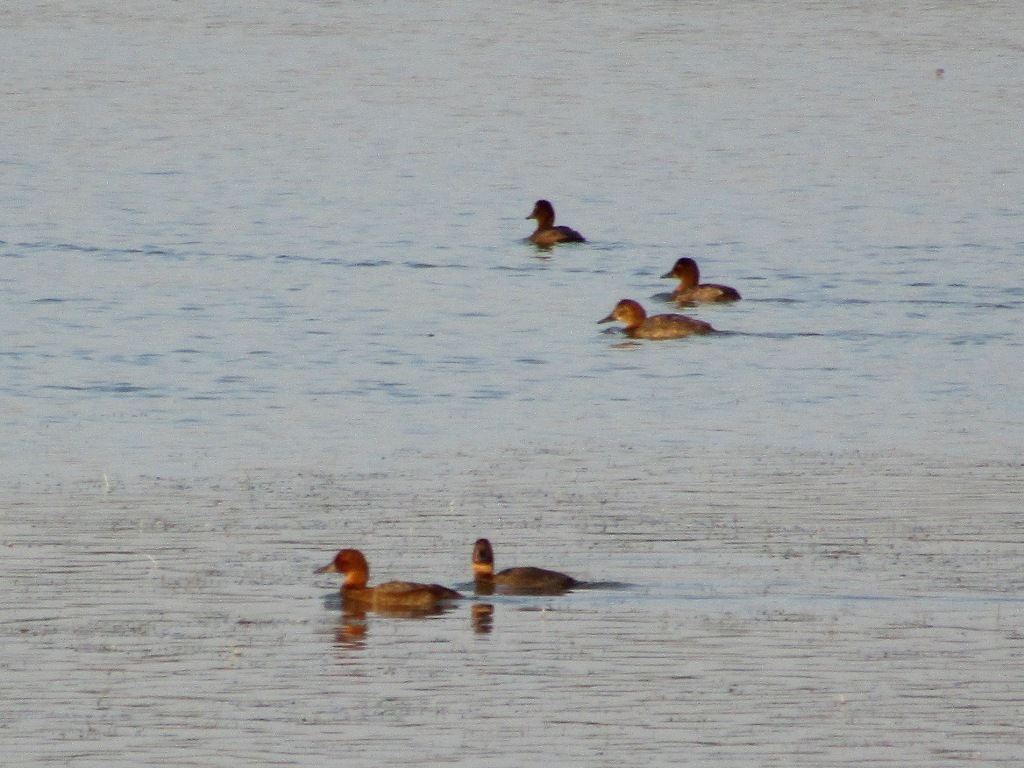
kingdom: Animalia
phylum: Chordata
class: Aves
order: Anseriformes
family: Anatidae
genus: Aythya
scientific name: Aythya ferina
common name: Common pochard
